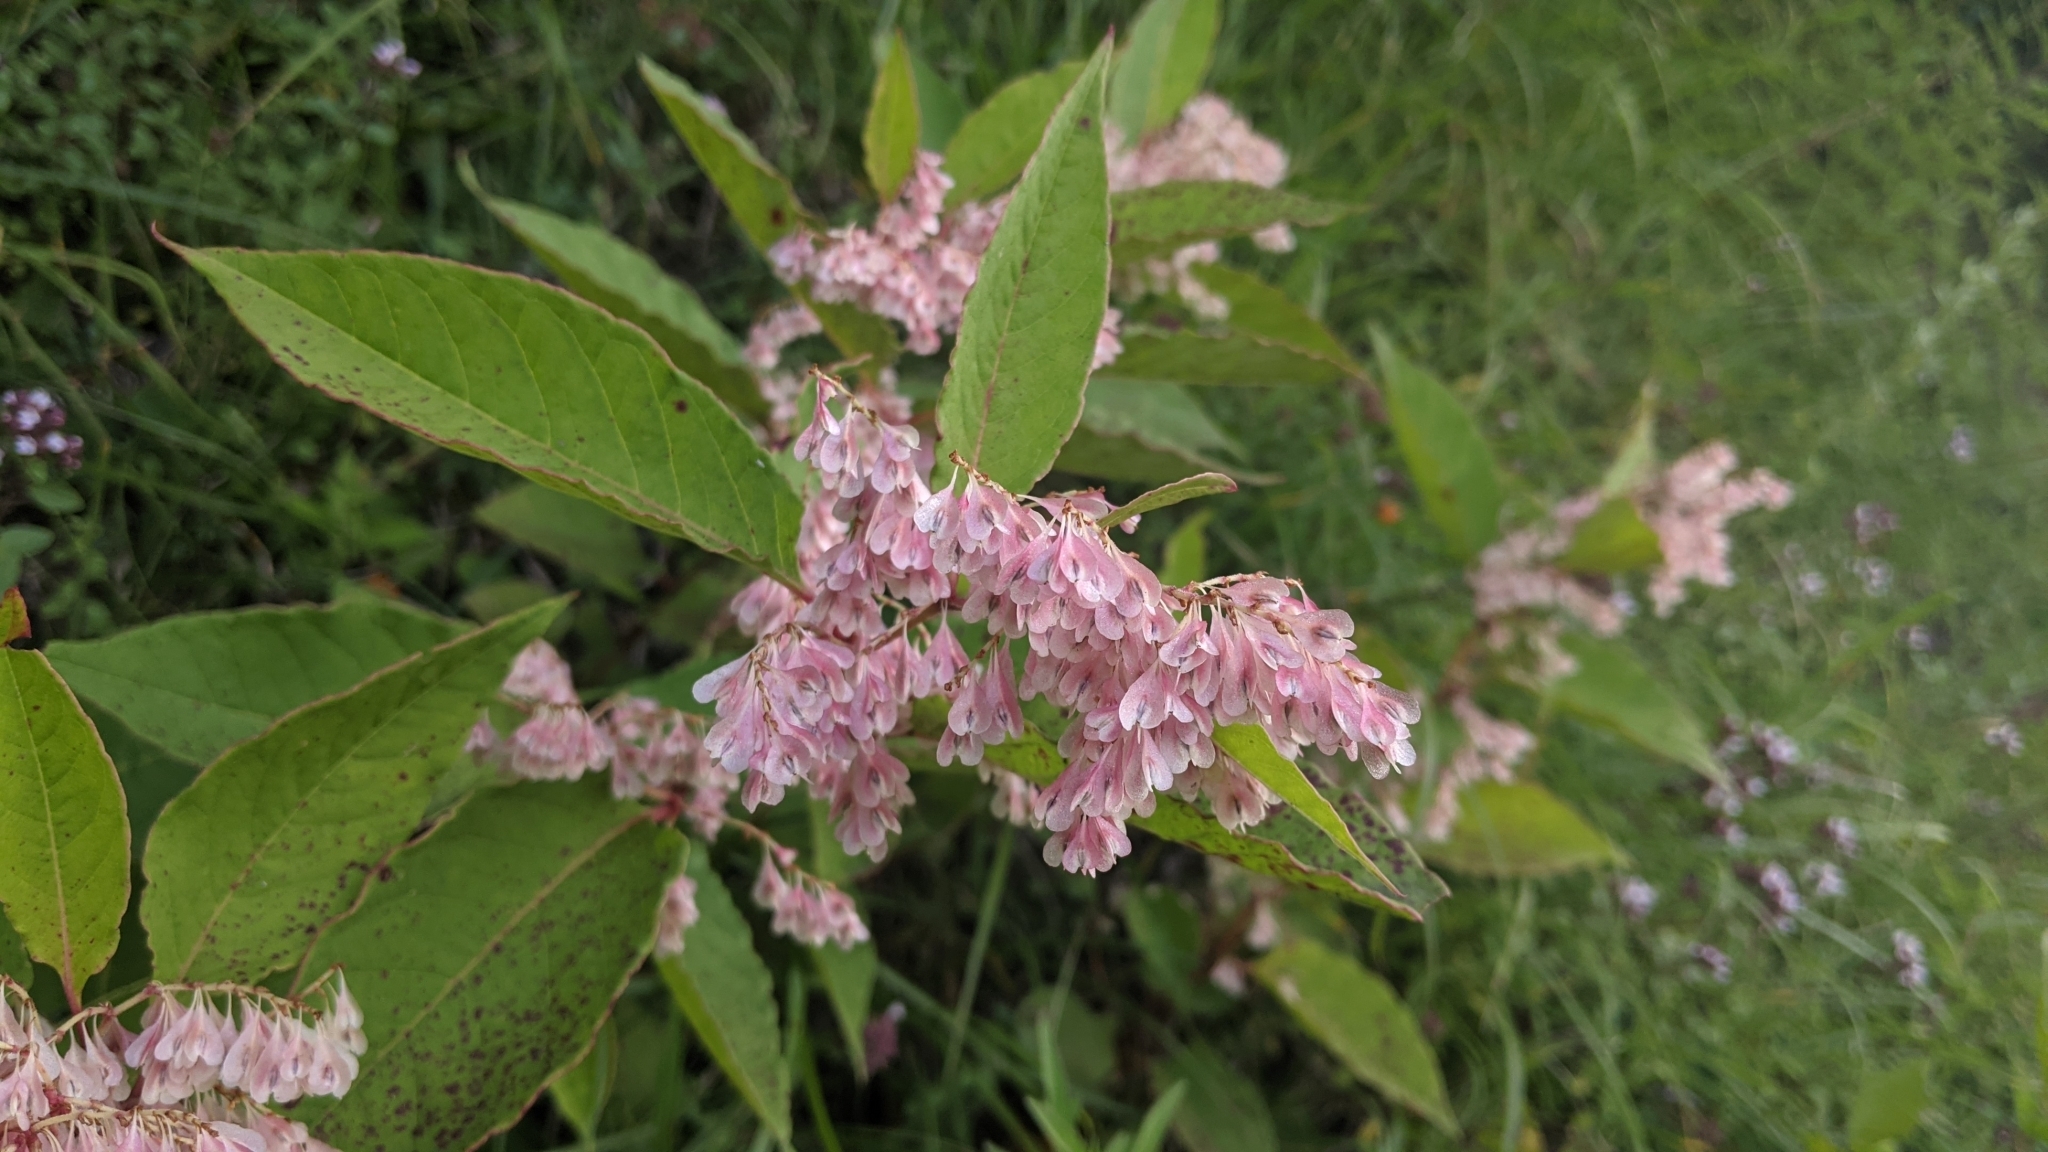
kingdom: Plantae
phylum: Tracheophyta
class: Magnoliopsida
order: Caryophyllales
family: Polygonaceae
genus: Reynoutria
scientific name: Reynoutria japonica
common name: Japanese knotweed
